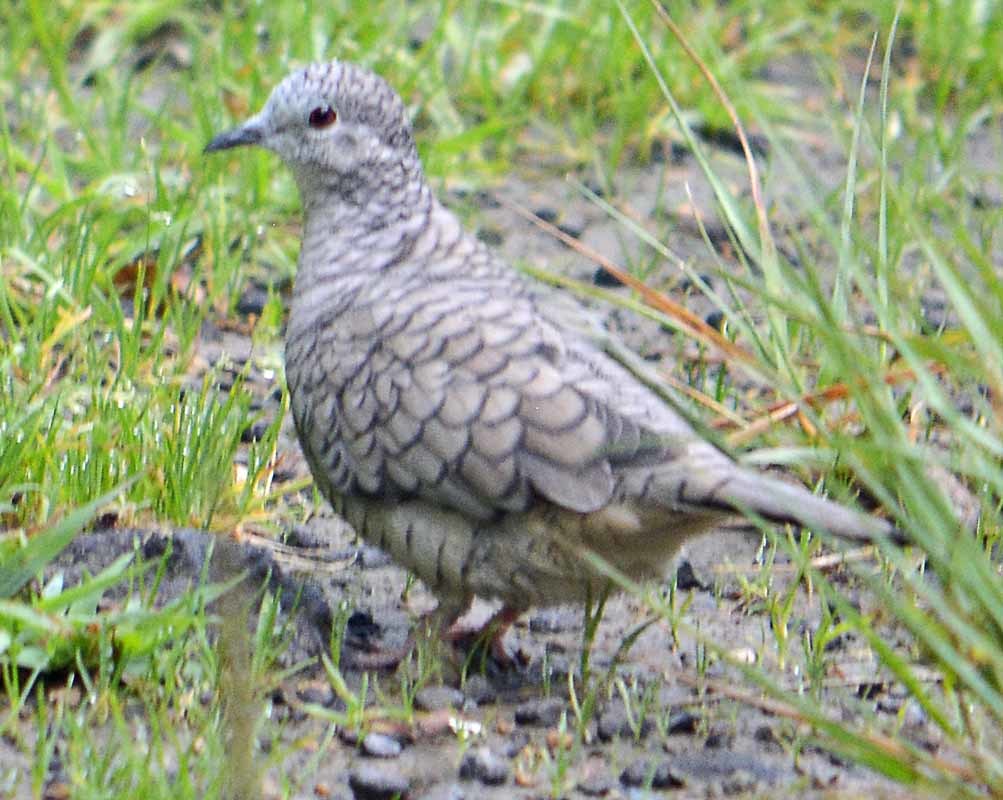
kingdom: Animalia
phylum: Chordata
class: Aves
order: Columbiformes
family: Columbidae
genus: Columbina
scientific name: Columbina inca
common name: Inca dove
